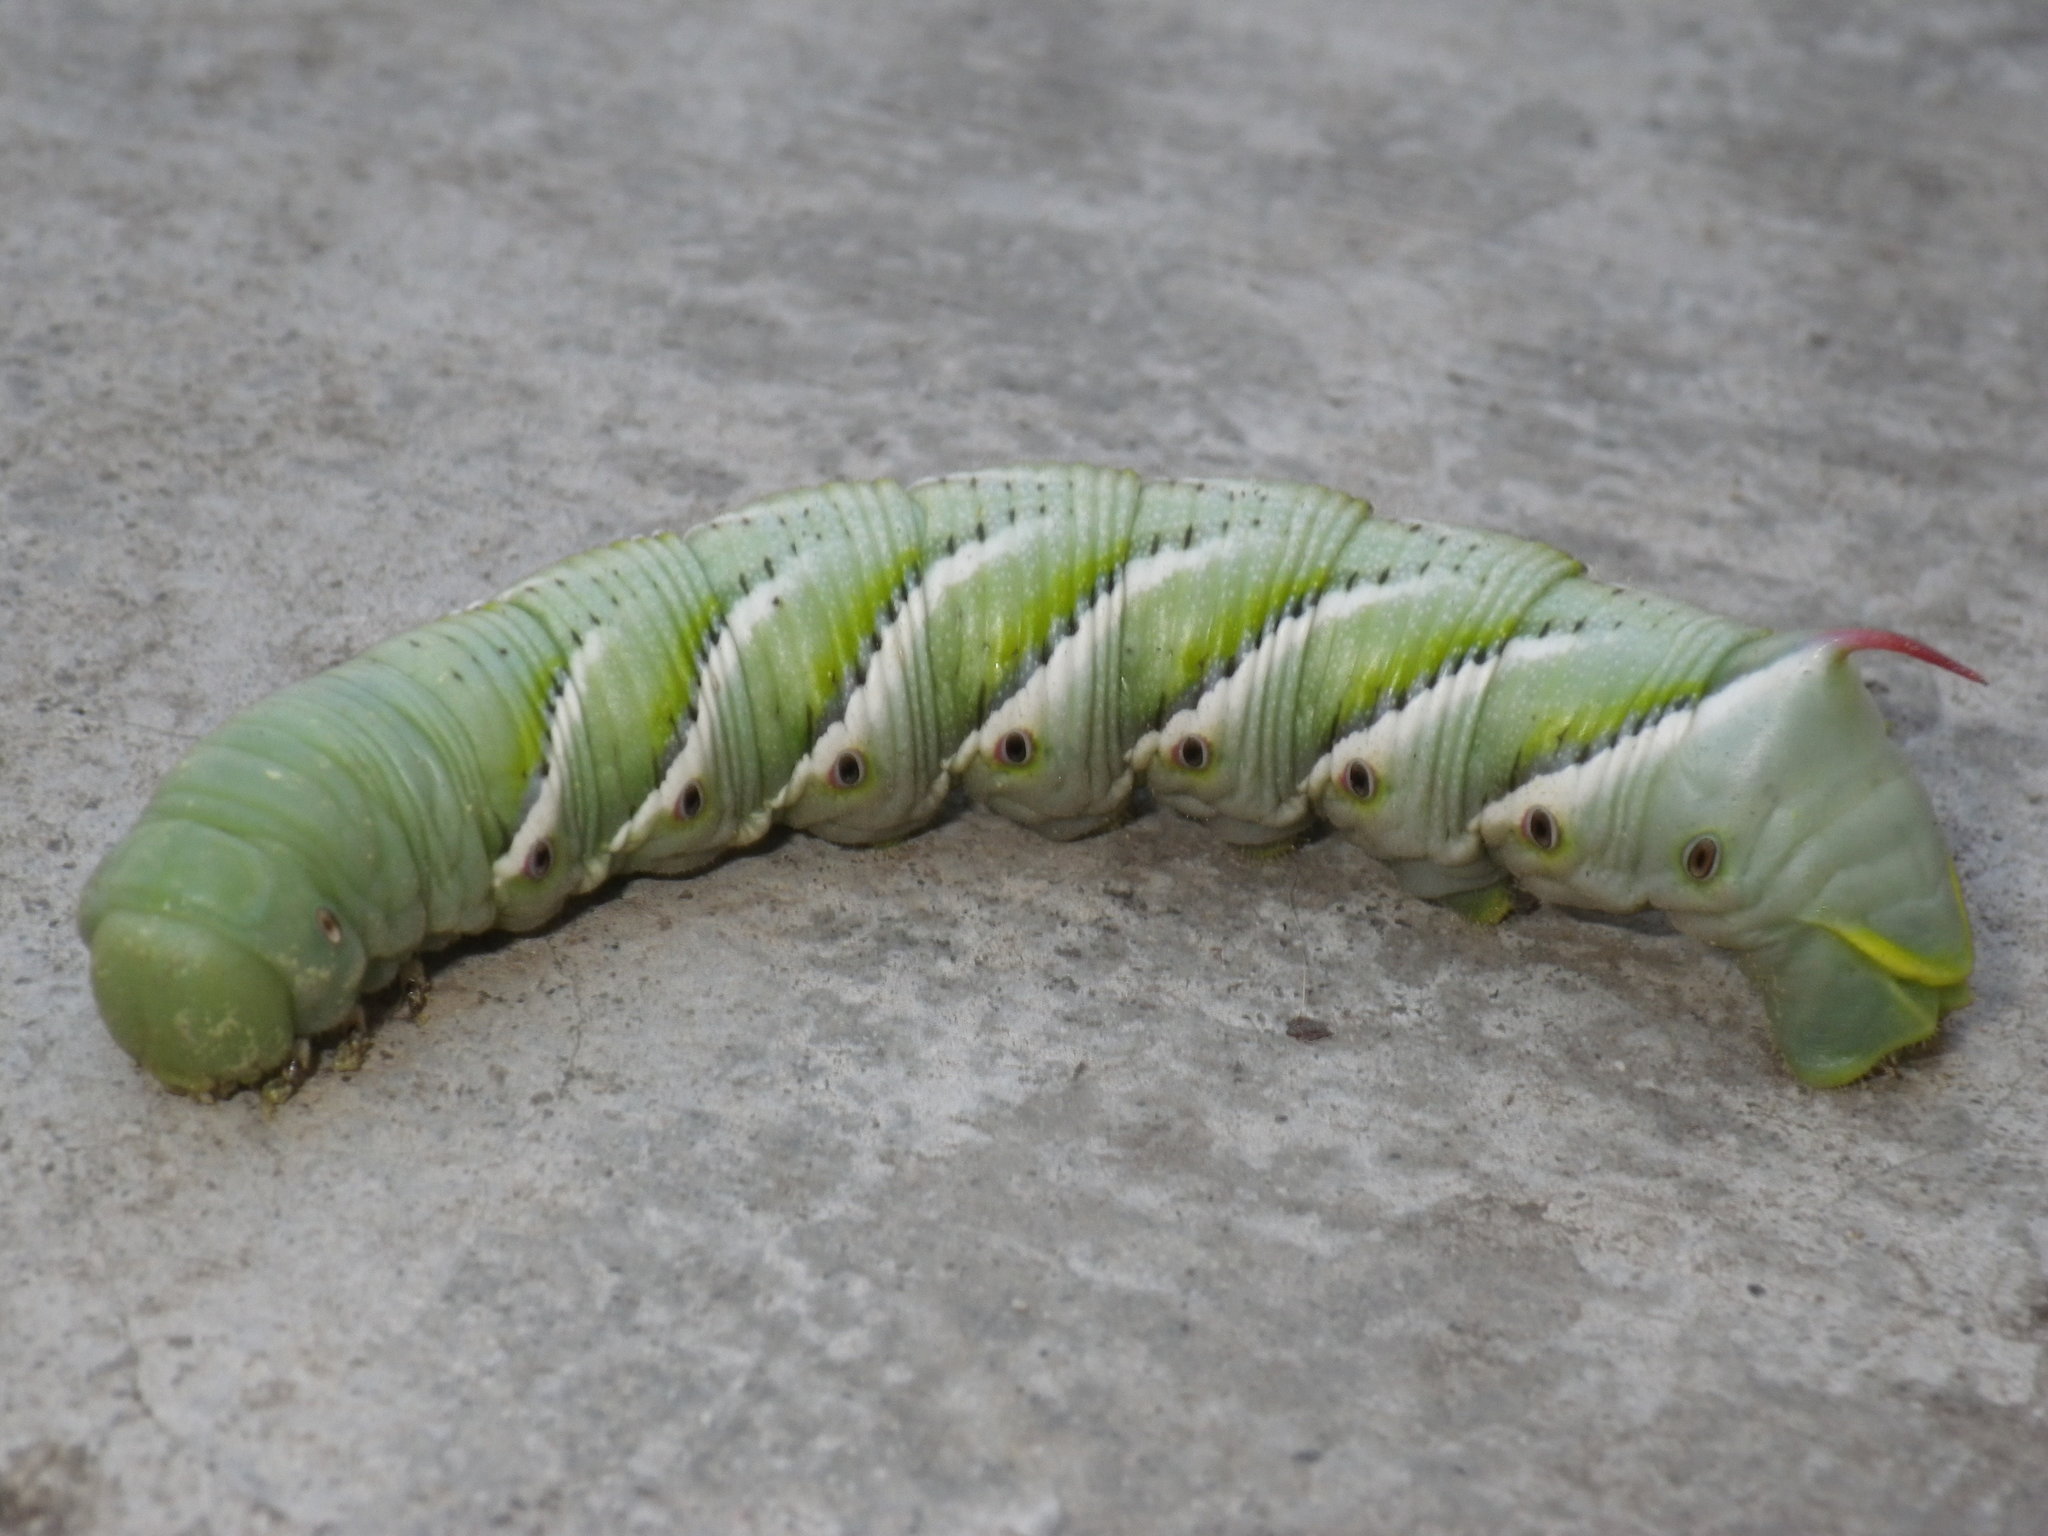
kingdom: Animalia
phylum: Arthropoda
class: Insecta
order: Lepidoptera
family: Sphingidae
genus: Manduca
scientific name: Manduca sexta
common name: Carolina sphinx
